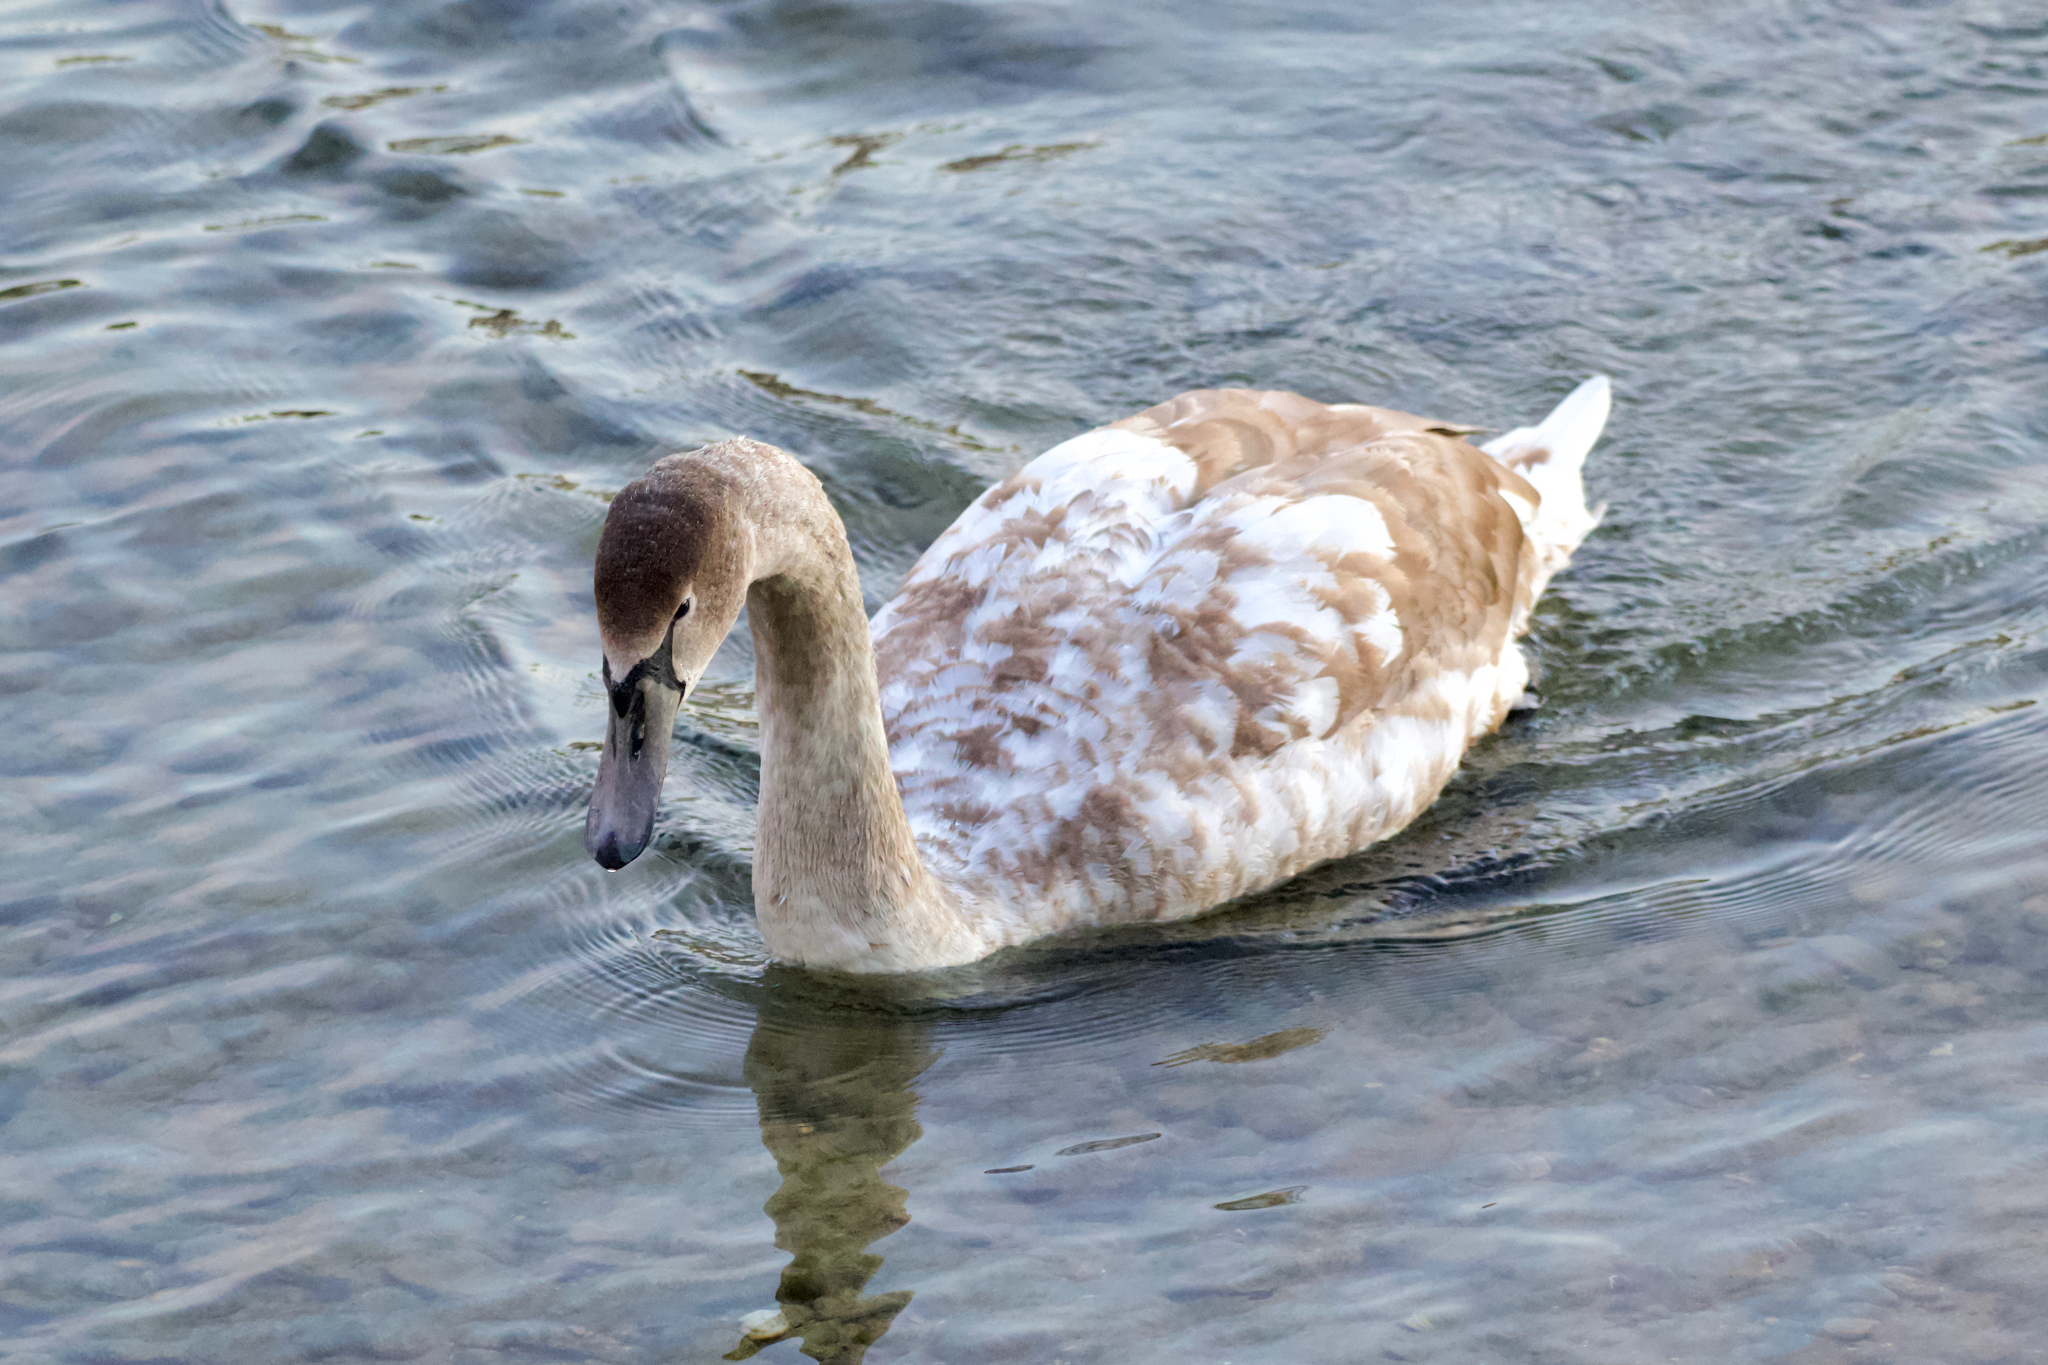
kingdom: Animalia
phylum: Chordata
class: Aves
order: Anseriformes
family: Anatidae
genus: Cygnus
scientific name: Cygnus olor
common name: Mute swan
